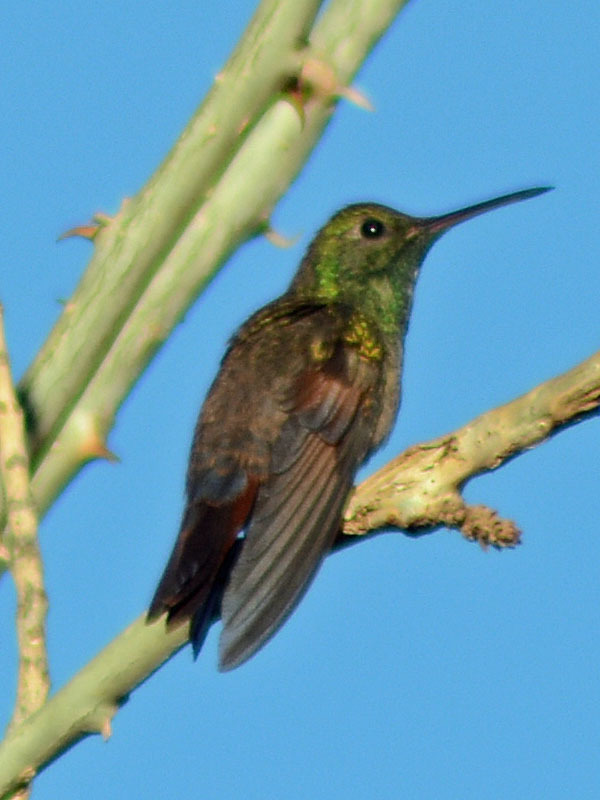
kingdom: Animalia
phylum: Chordata
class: Aves
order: Apodiformes
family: Trochilidae
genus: Saucerottia
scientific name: Saucerottia beryllina
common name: Berylline hummingbird
